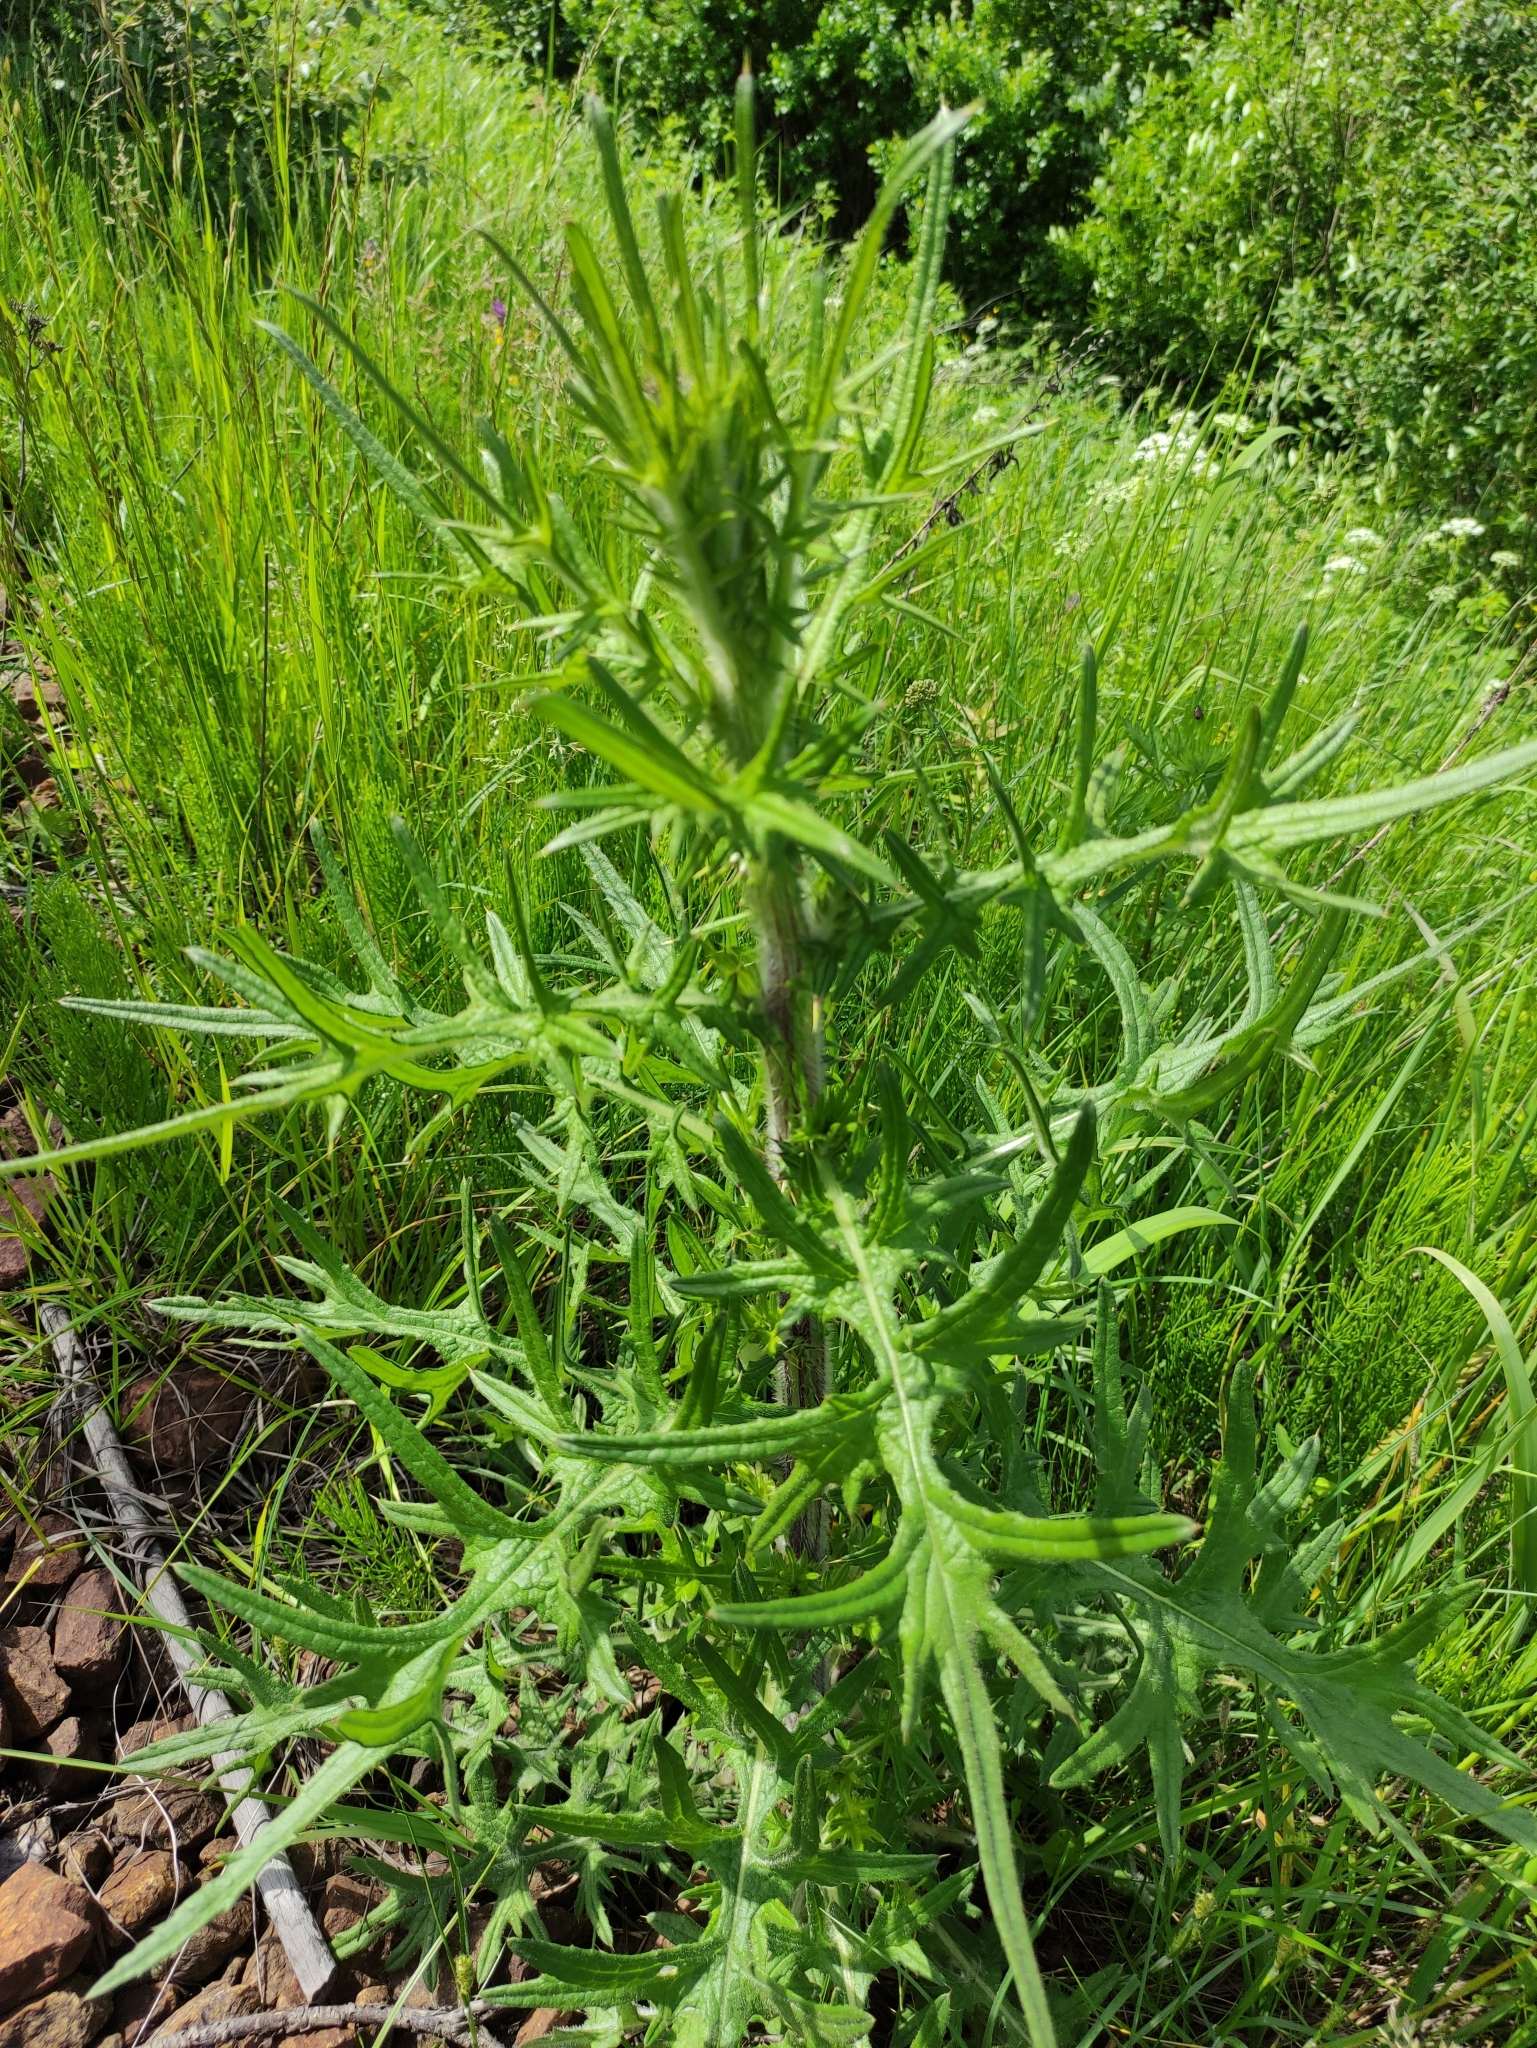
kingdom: Plantae
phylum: Tracheophyta
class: Magnoliopsida
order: Asterales
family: Asteraceae
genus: Cirsium
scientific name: Cirsium vulgare
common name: Bull thistle
